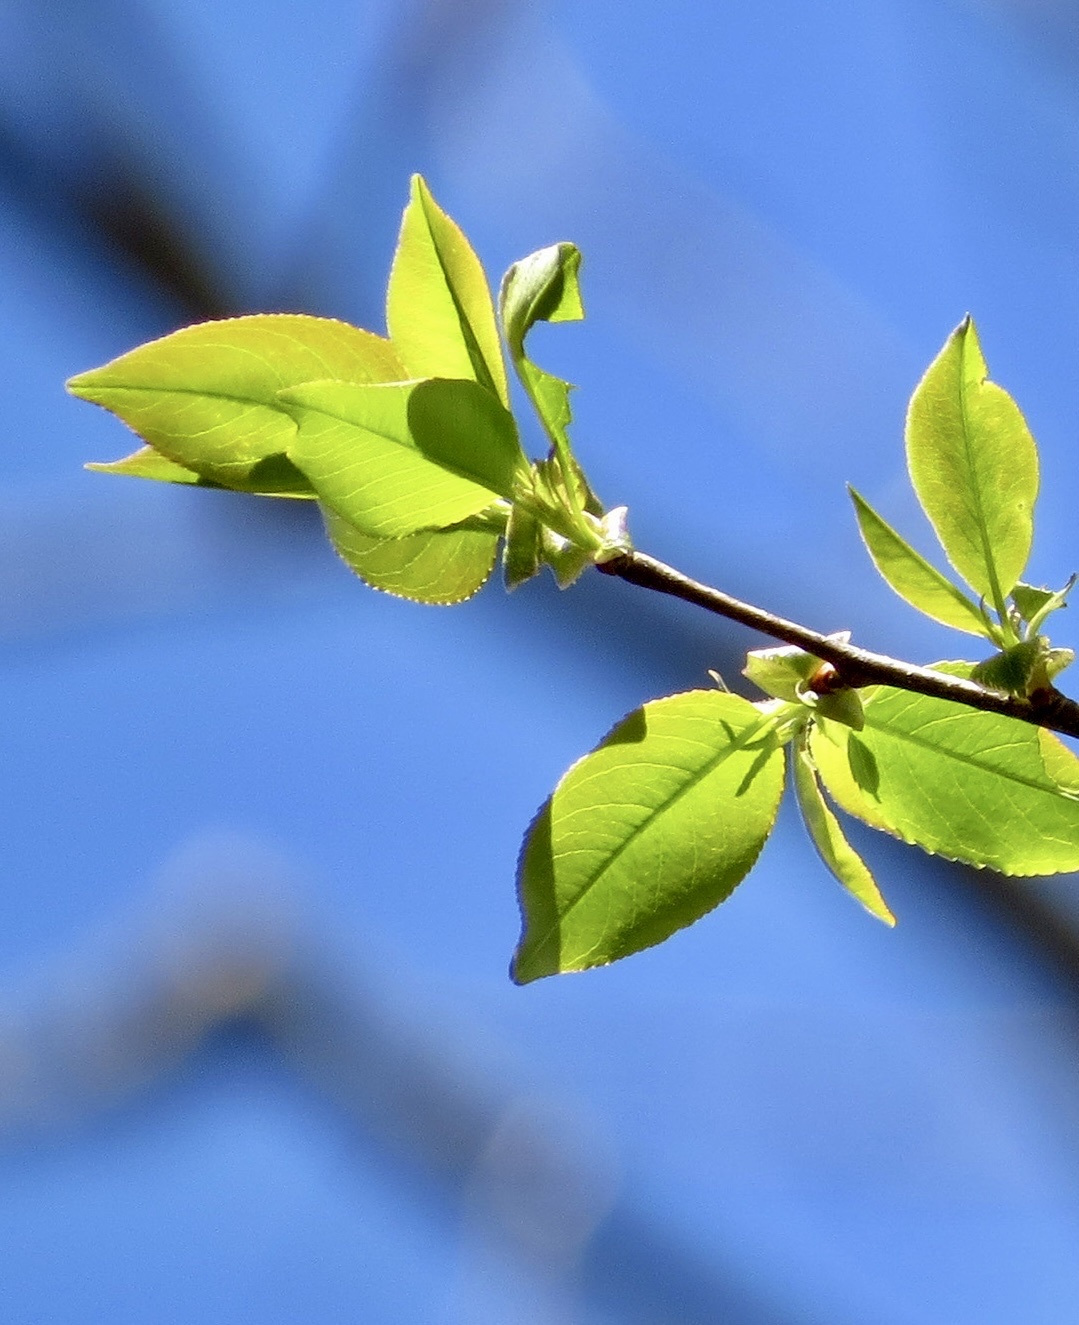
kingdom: Plantae
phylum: Tracheophyta
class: Magnoliopsida
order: Rosales
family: Rosaceae
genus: Prunus
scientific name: Prunus serotina
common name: Black cherry
